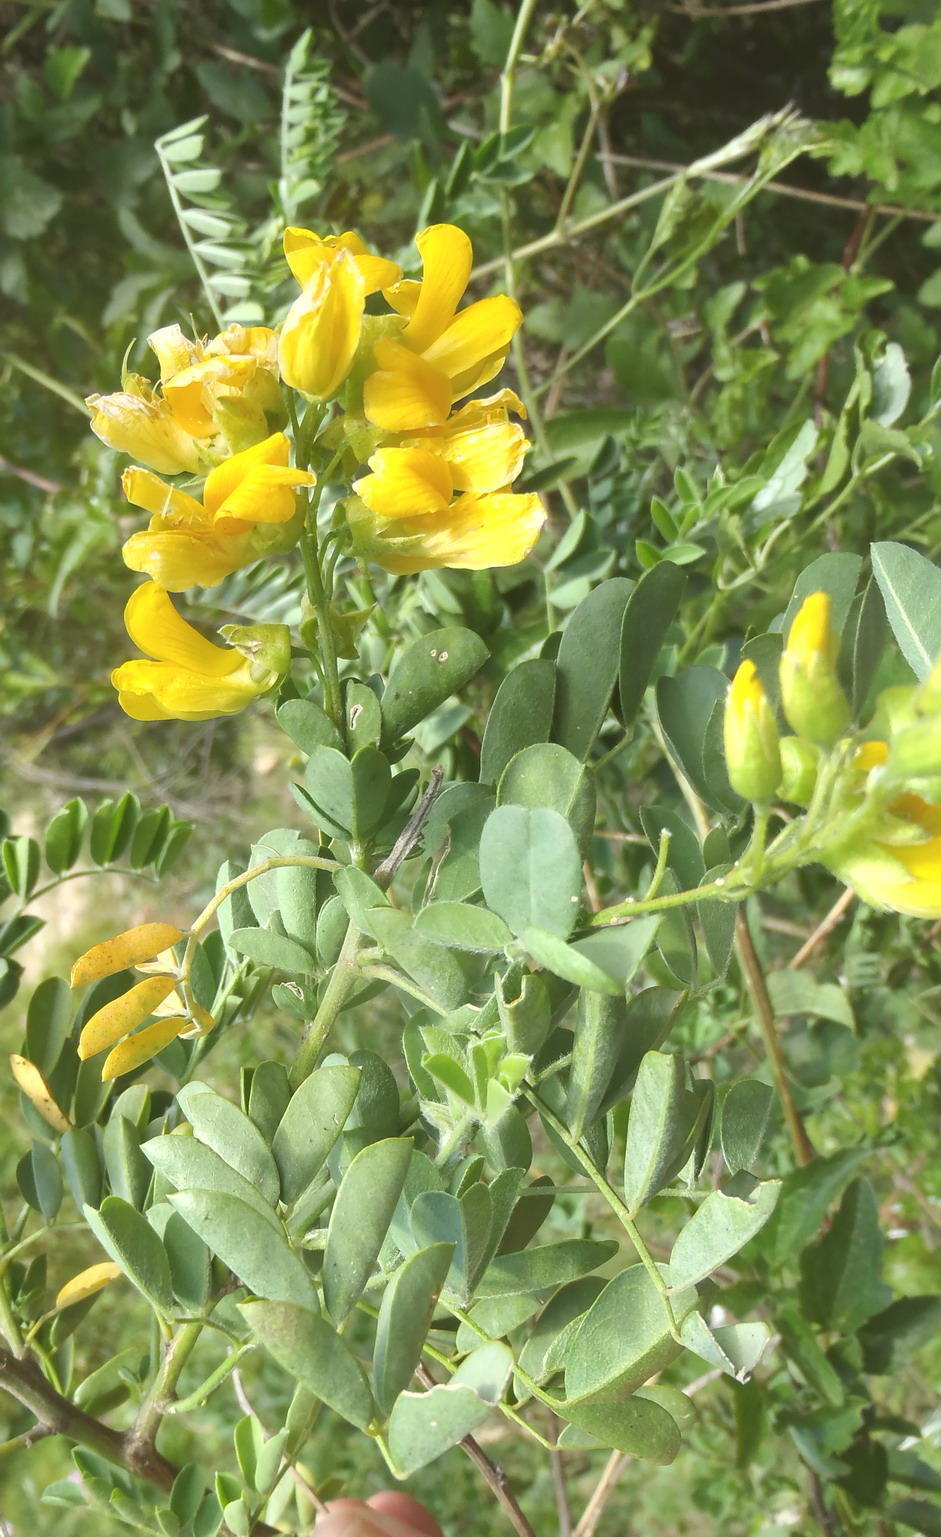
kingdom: Plantae
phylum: Tracheophyta
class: Magnoliopsida
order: Fabales
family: Fabaceae
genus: Calpurnia
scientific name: Calpurnia intrusa
